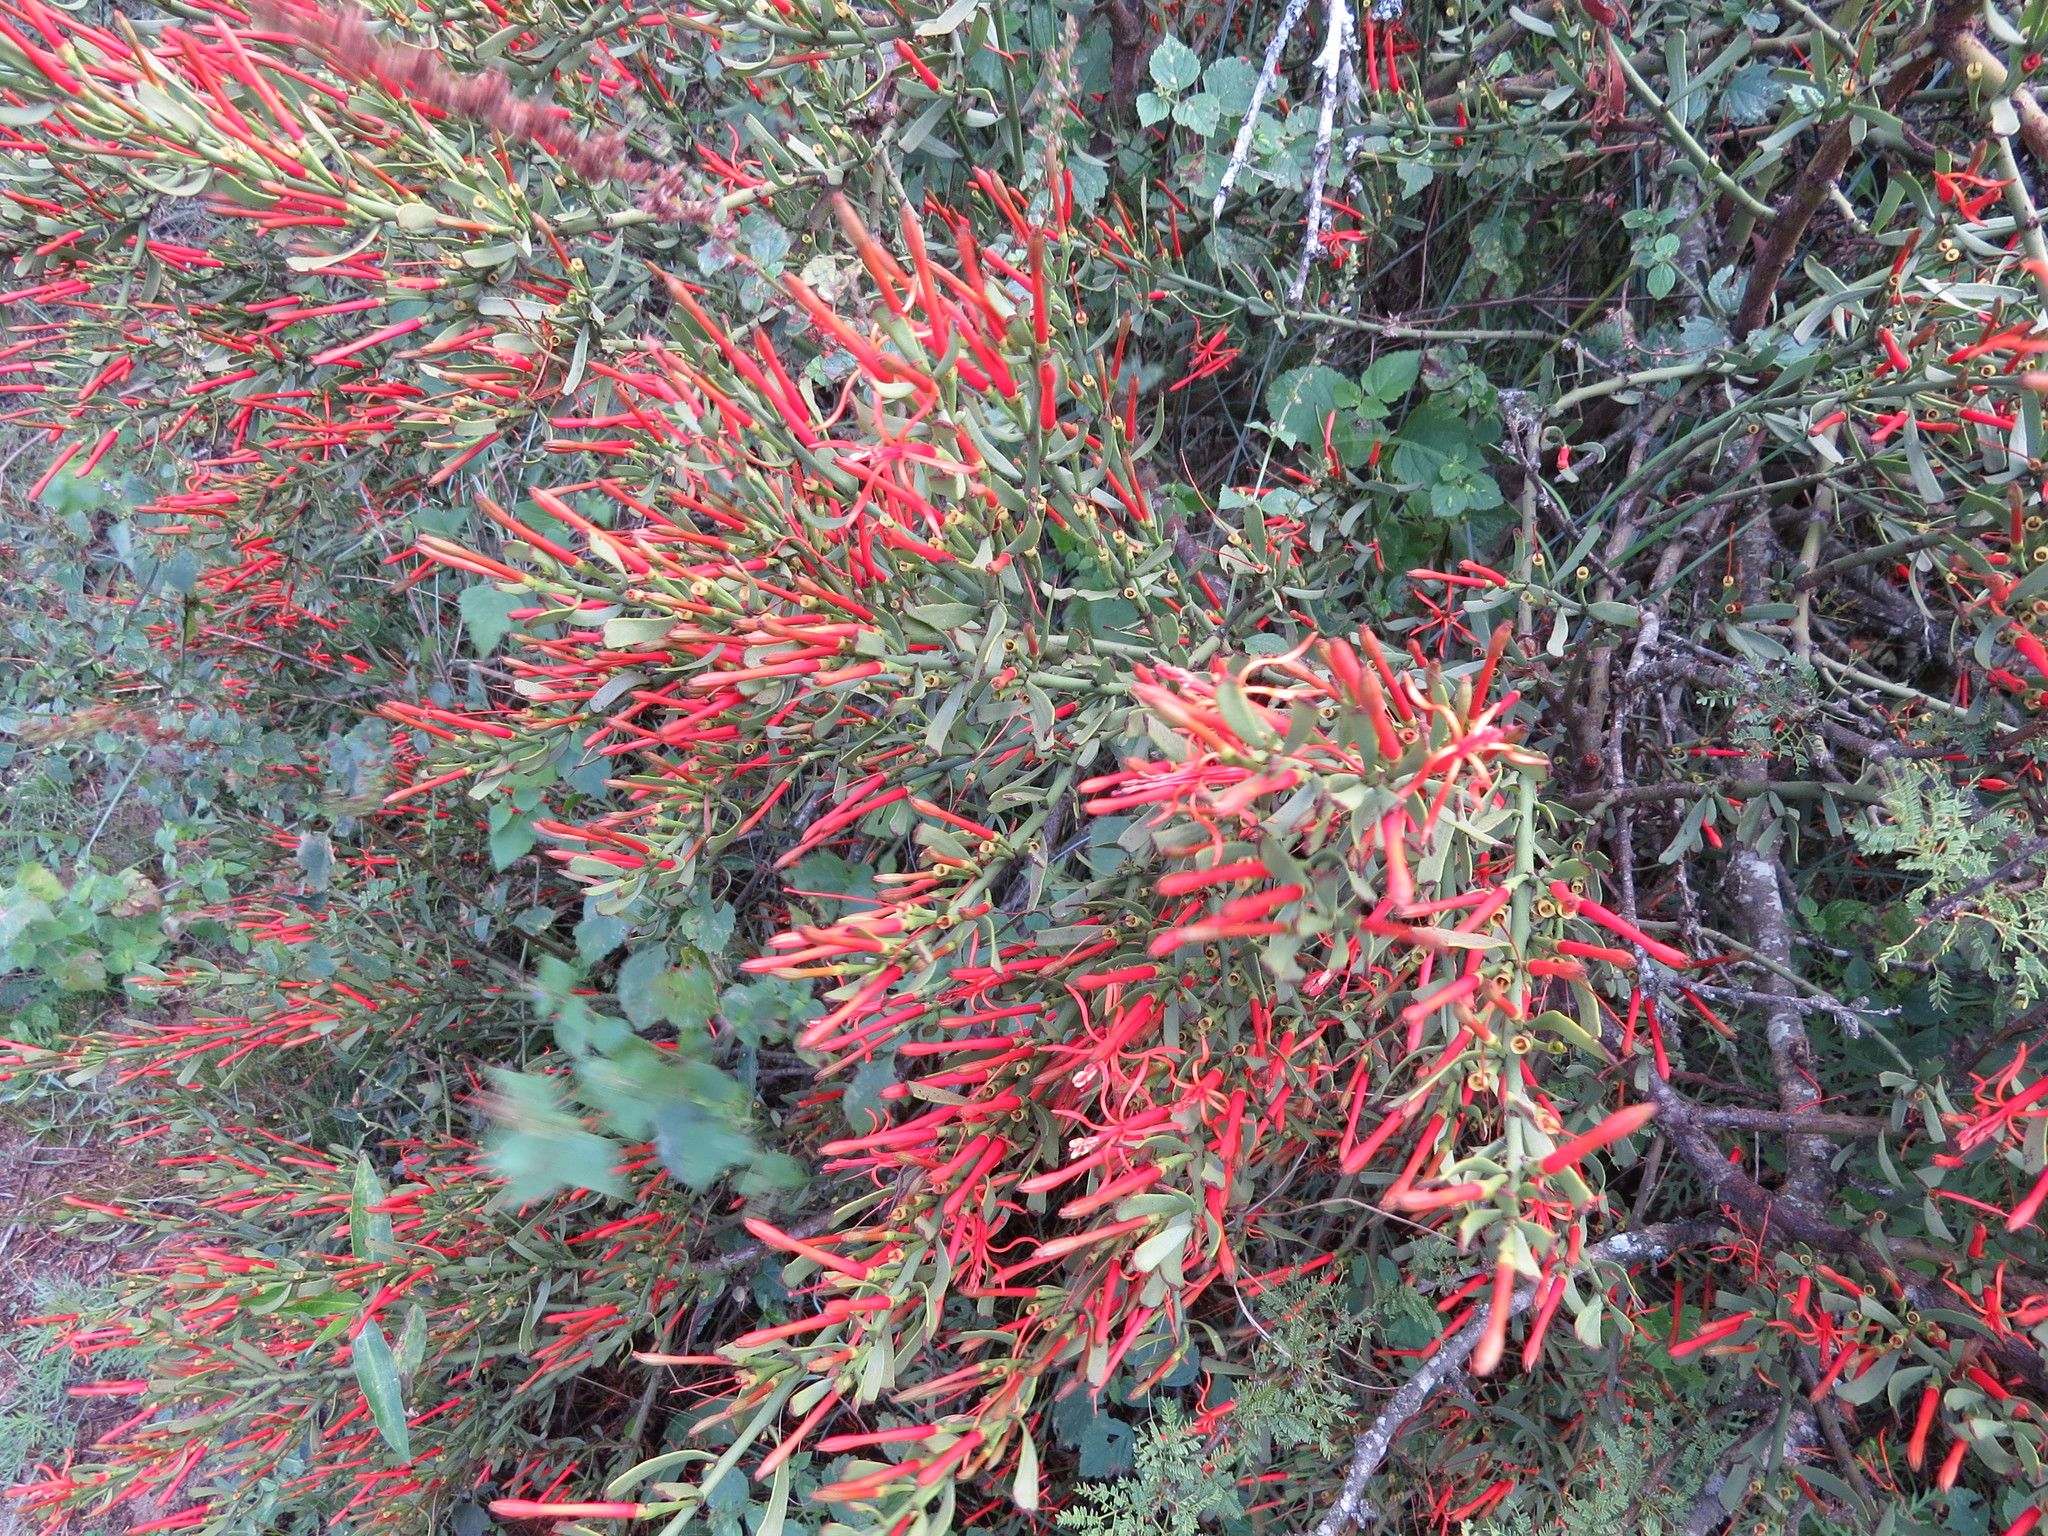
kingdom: Plantae
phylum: Tracheophyta
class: Magnoliopsida
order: Santalales
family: Loranthaceae
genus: Ligaria
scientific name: Ligaria cuneifolia
